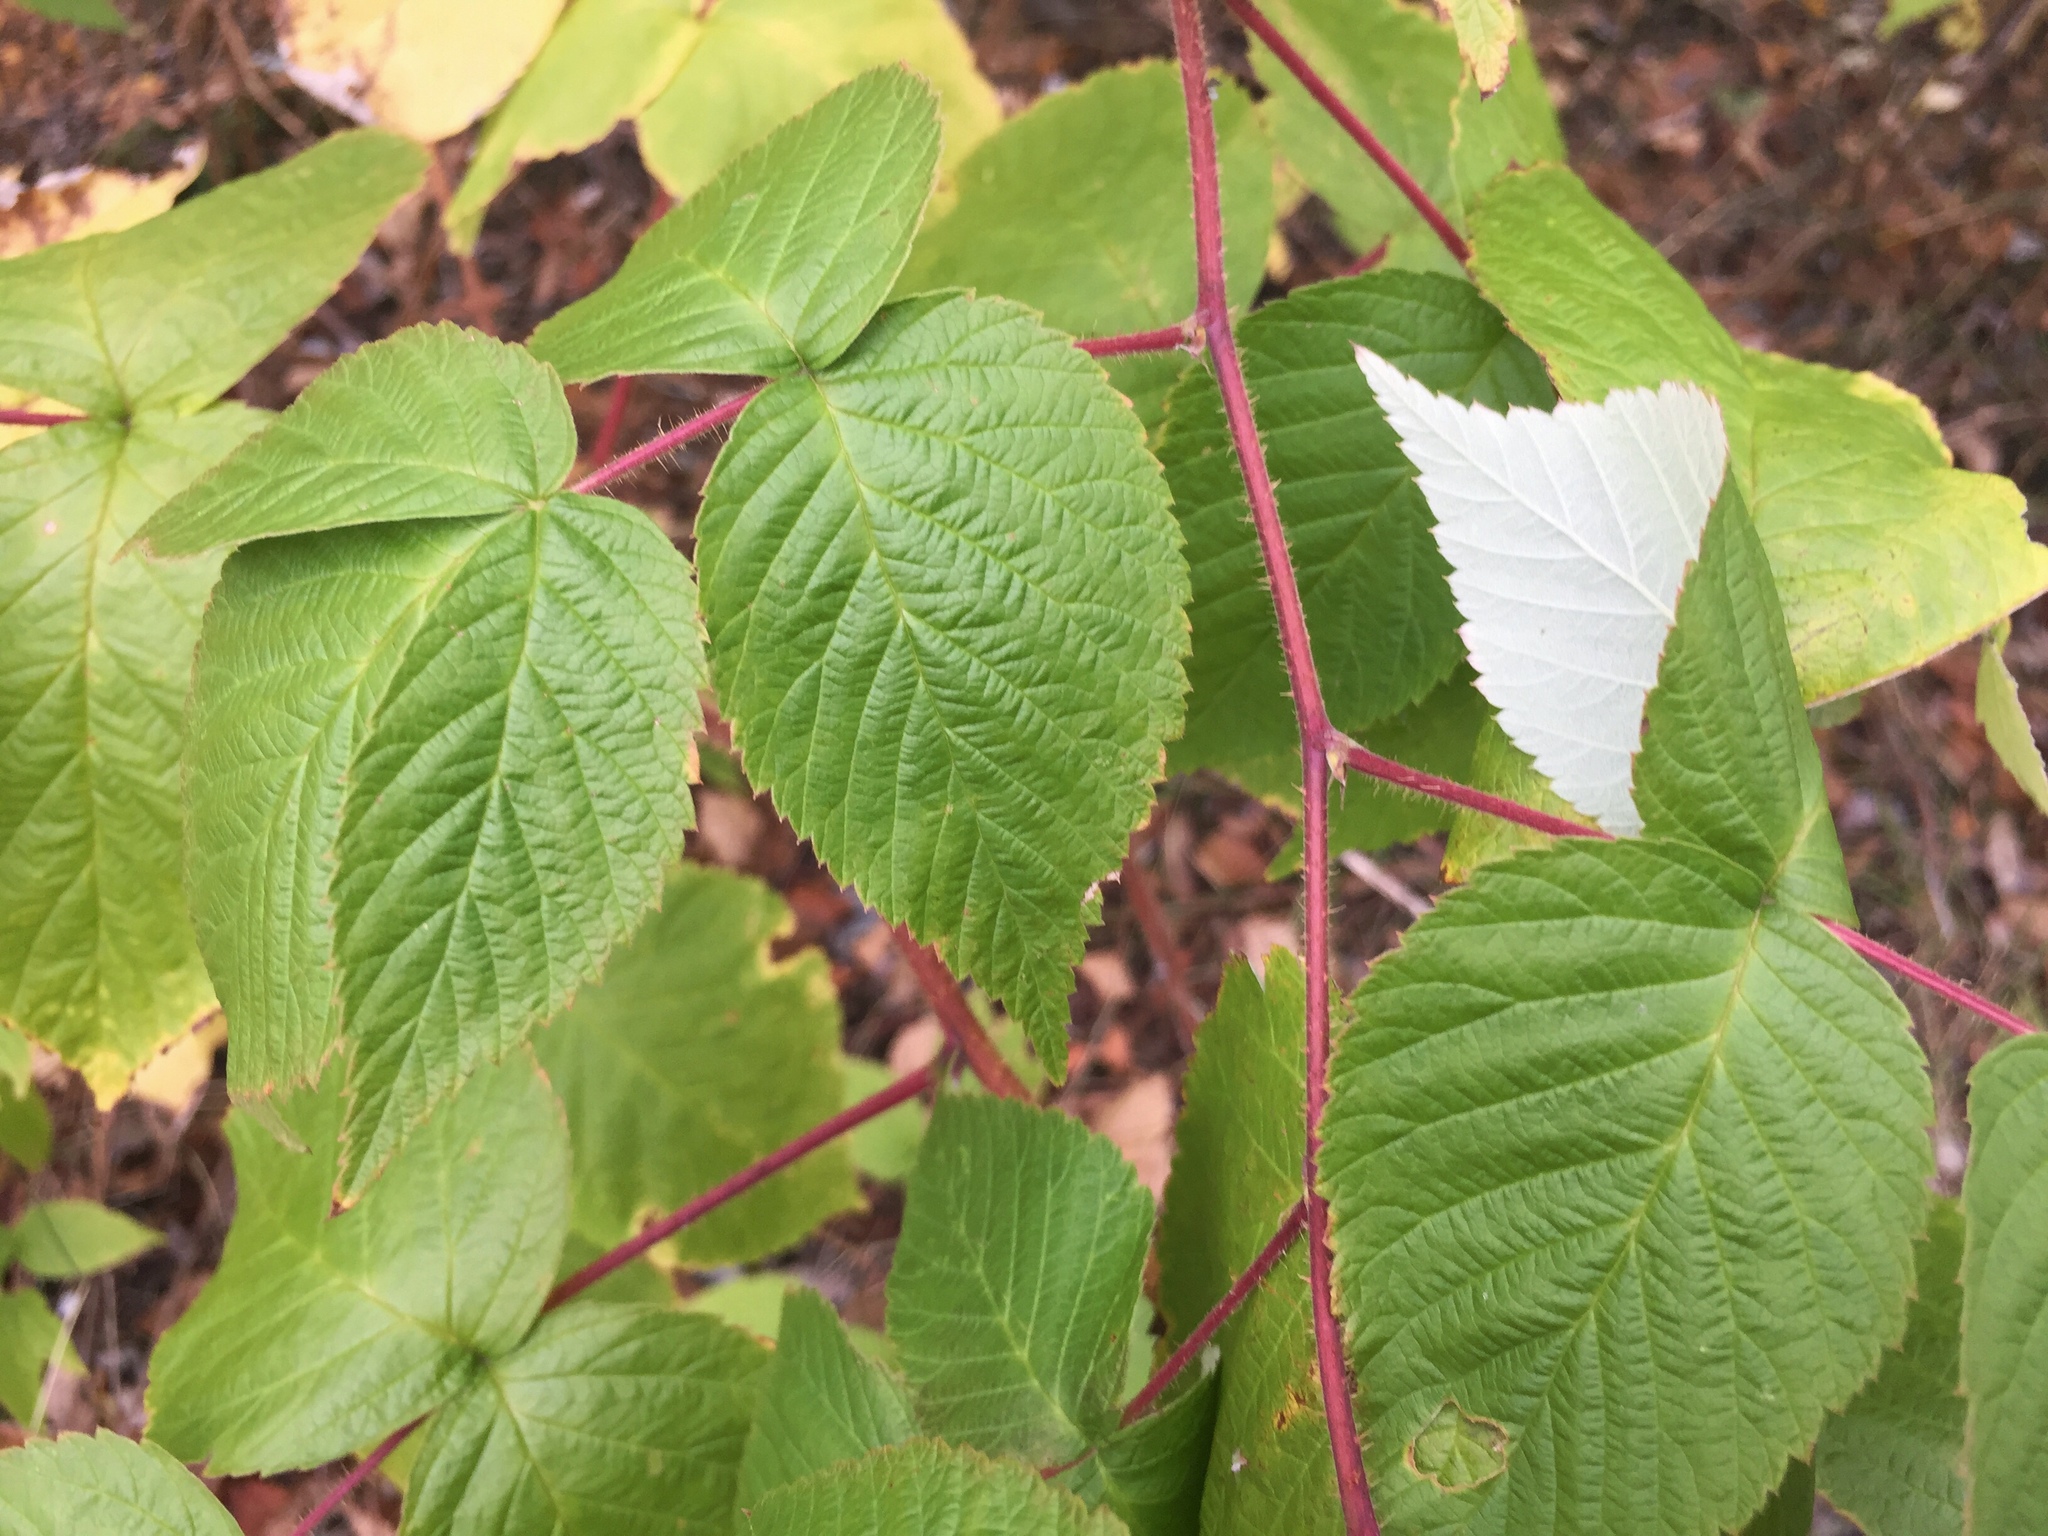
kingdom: Plantae
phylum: Tracheophyta
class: Magnoliopsida
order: Rosales
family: Rosaceae
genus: Rubus
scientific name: Rubus idaeus
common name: Raspberry
